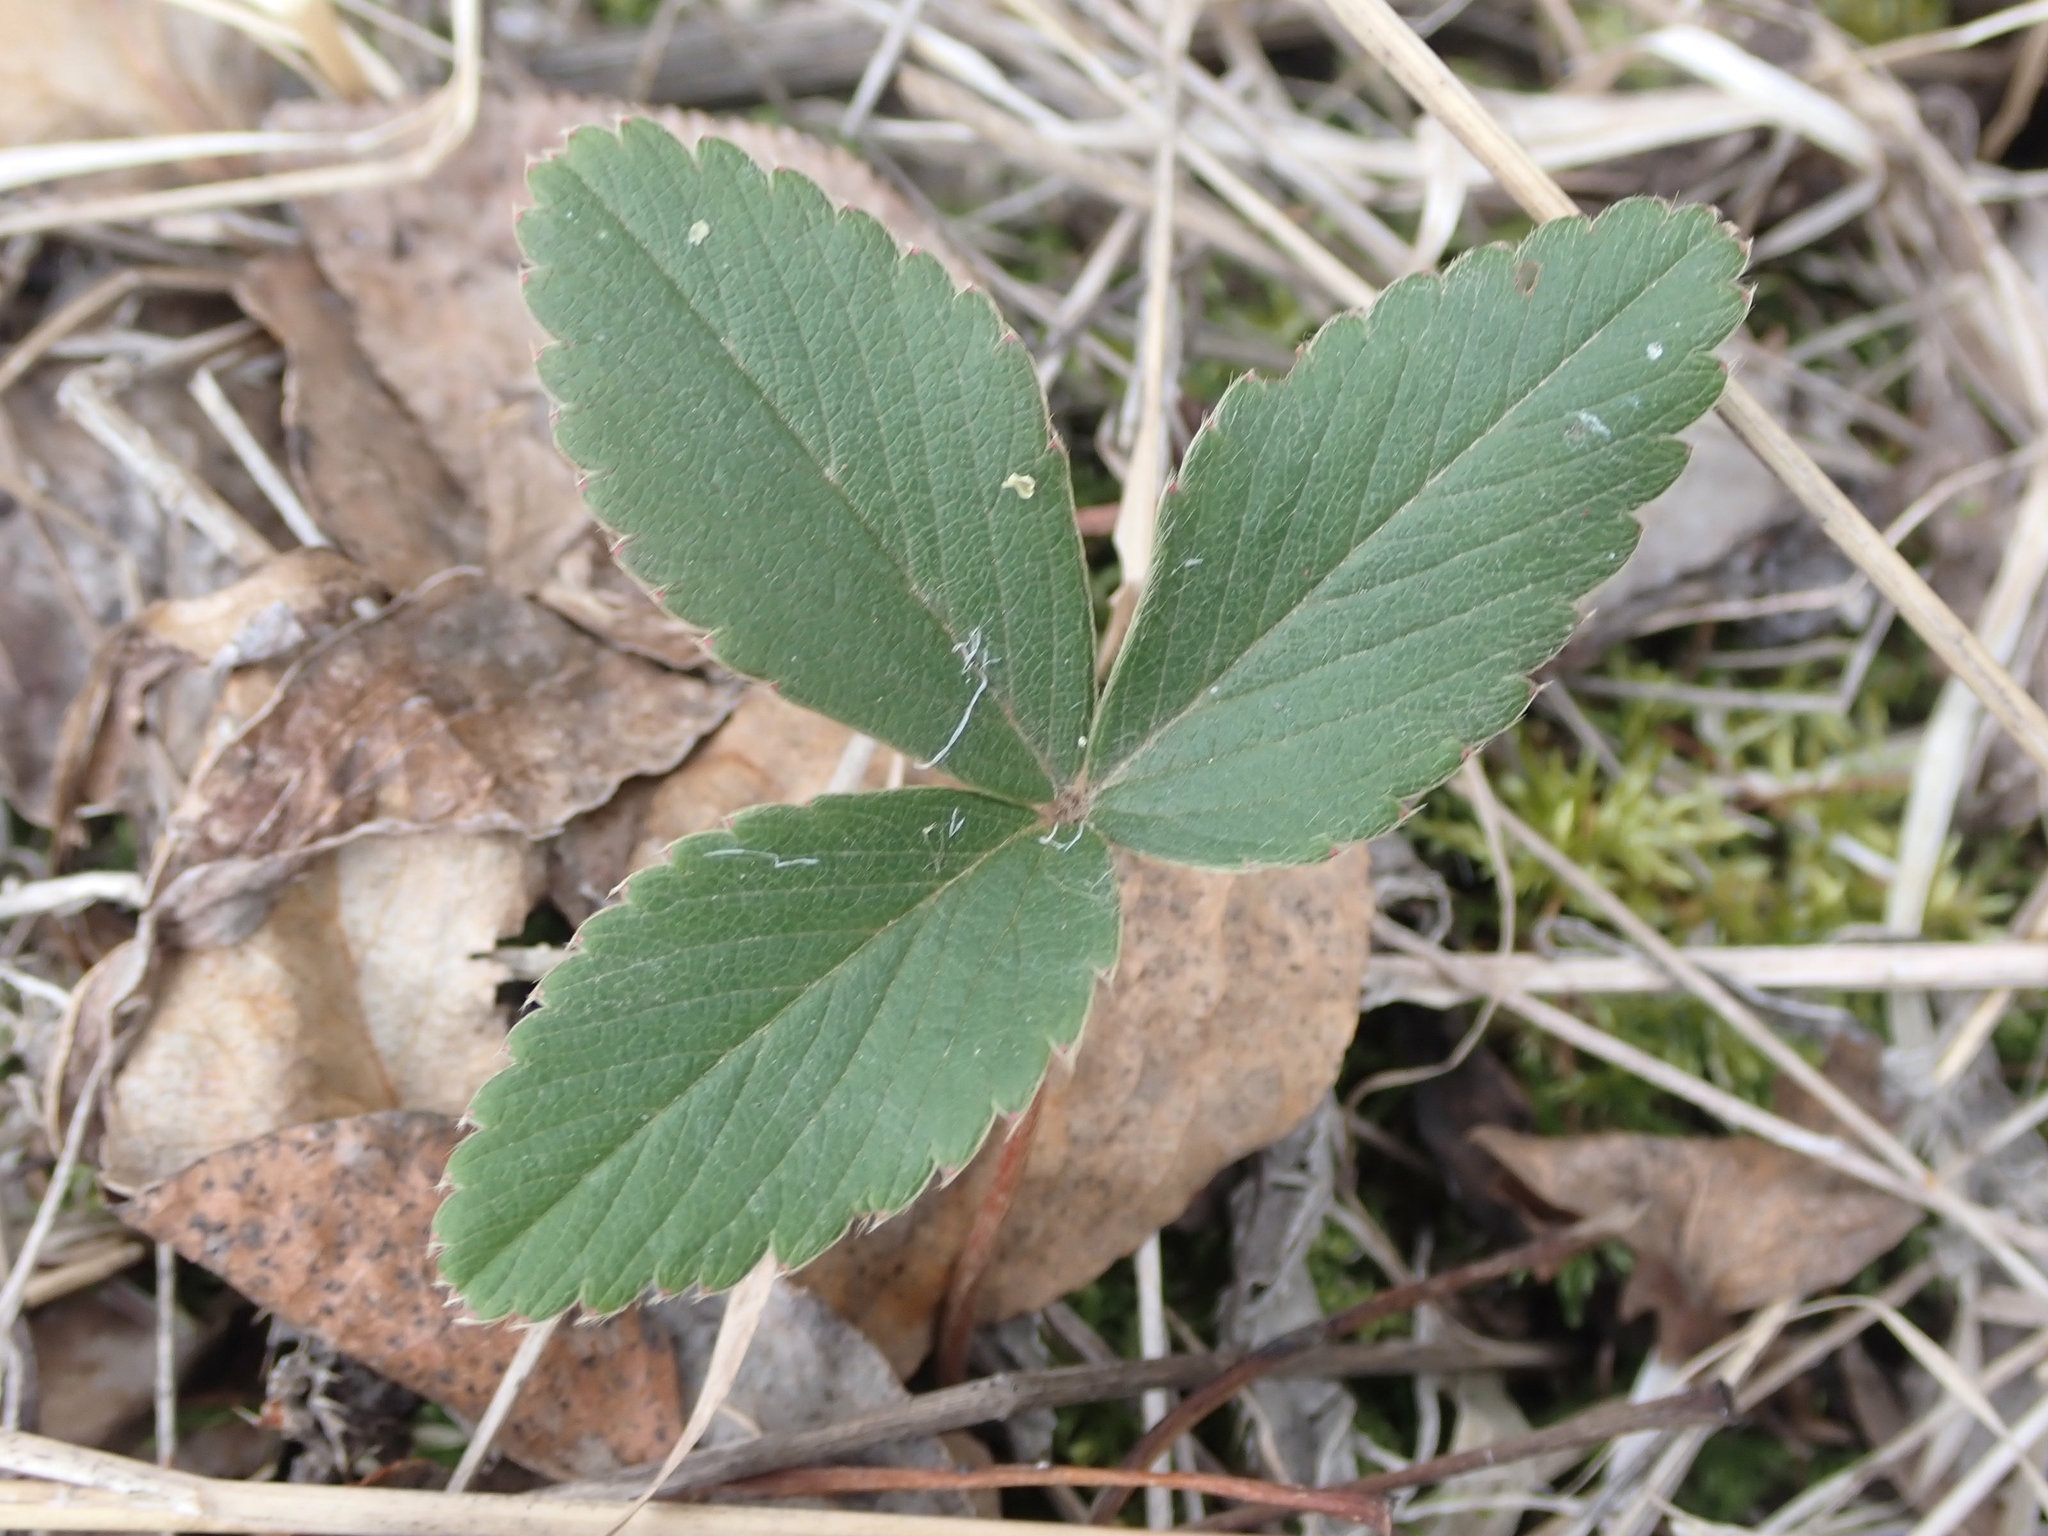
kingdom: Plantae
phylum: Tracheophyta
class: Magnoliopsida
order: Rosales
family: Rosaceae
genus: Fragaria
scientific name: Fragaria virginiana
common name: Thickleaved wild strawberry
